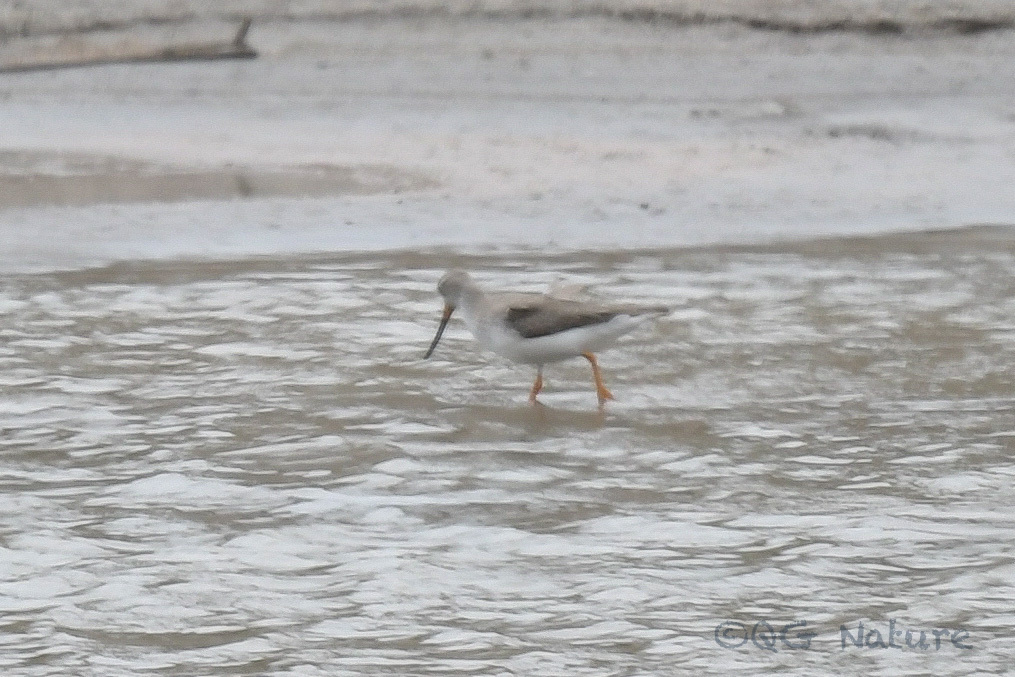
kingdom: Animalia
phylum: Chordata
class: Aves
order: Charadriiformes
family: Scolopacidae
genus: Xenus
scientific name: Xenus cinereus
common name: Terek sandpiper
